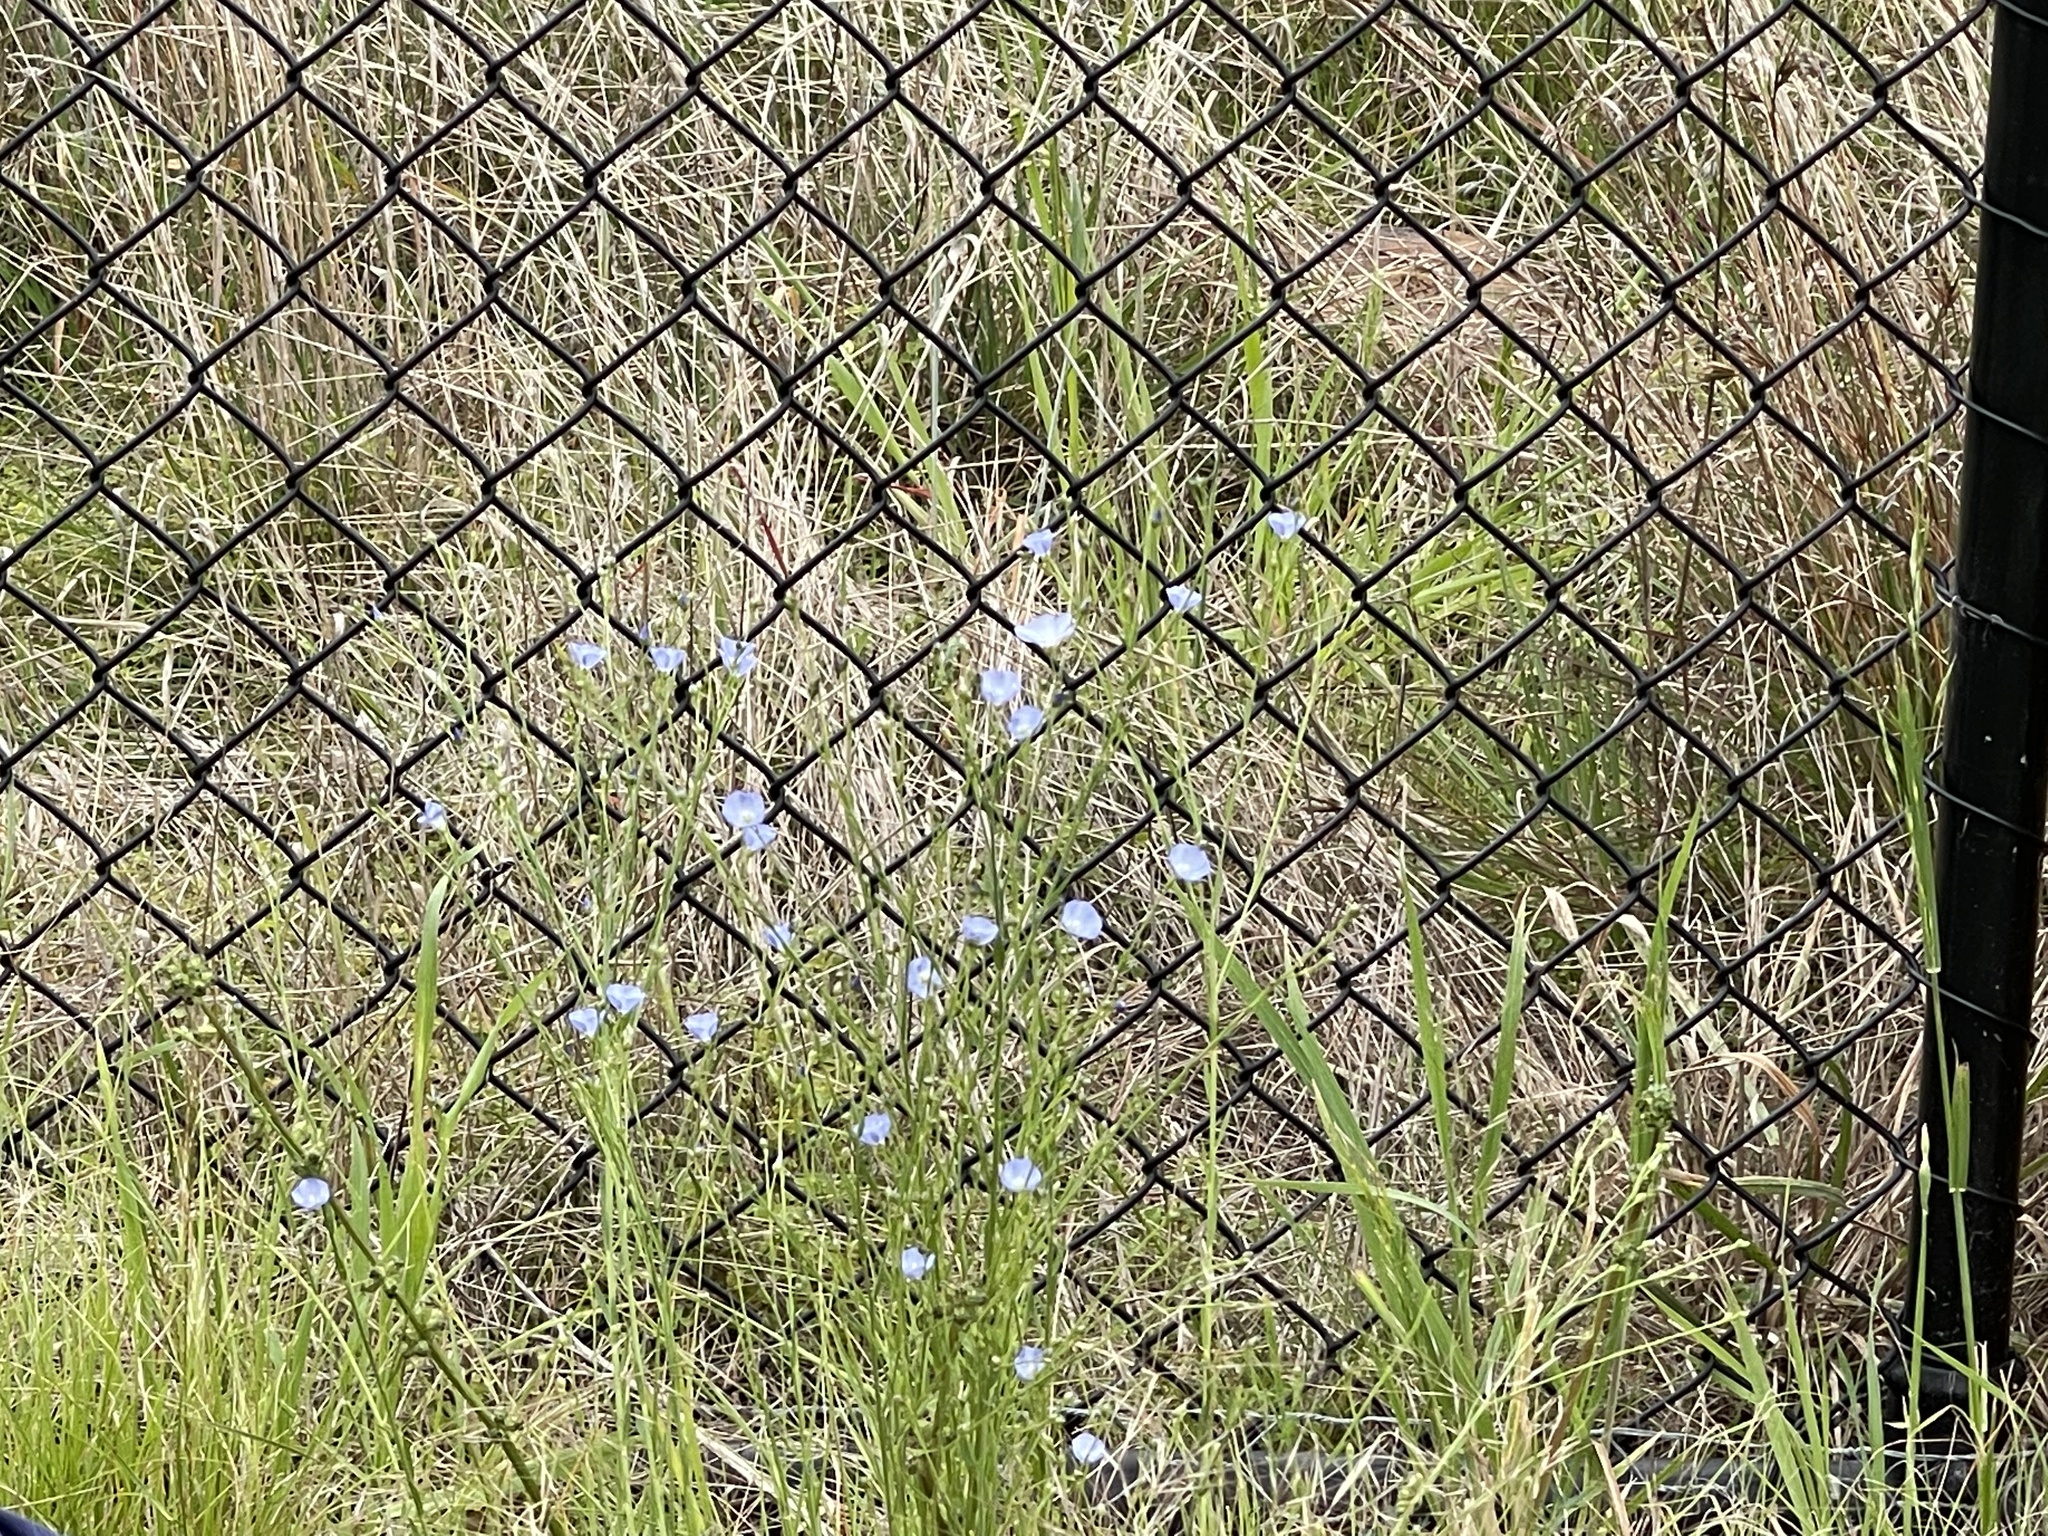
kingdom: Plantae
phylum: Tracheophyta
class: Magnoliopsida
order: Malpighiales
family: Linaceae
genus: Linum
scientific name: Linum marginale
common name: Wild flax
